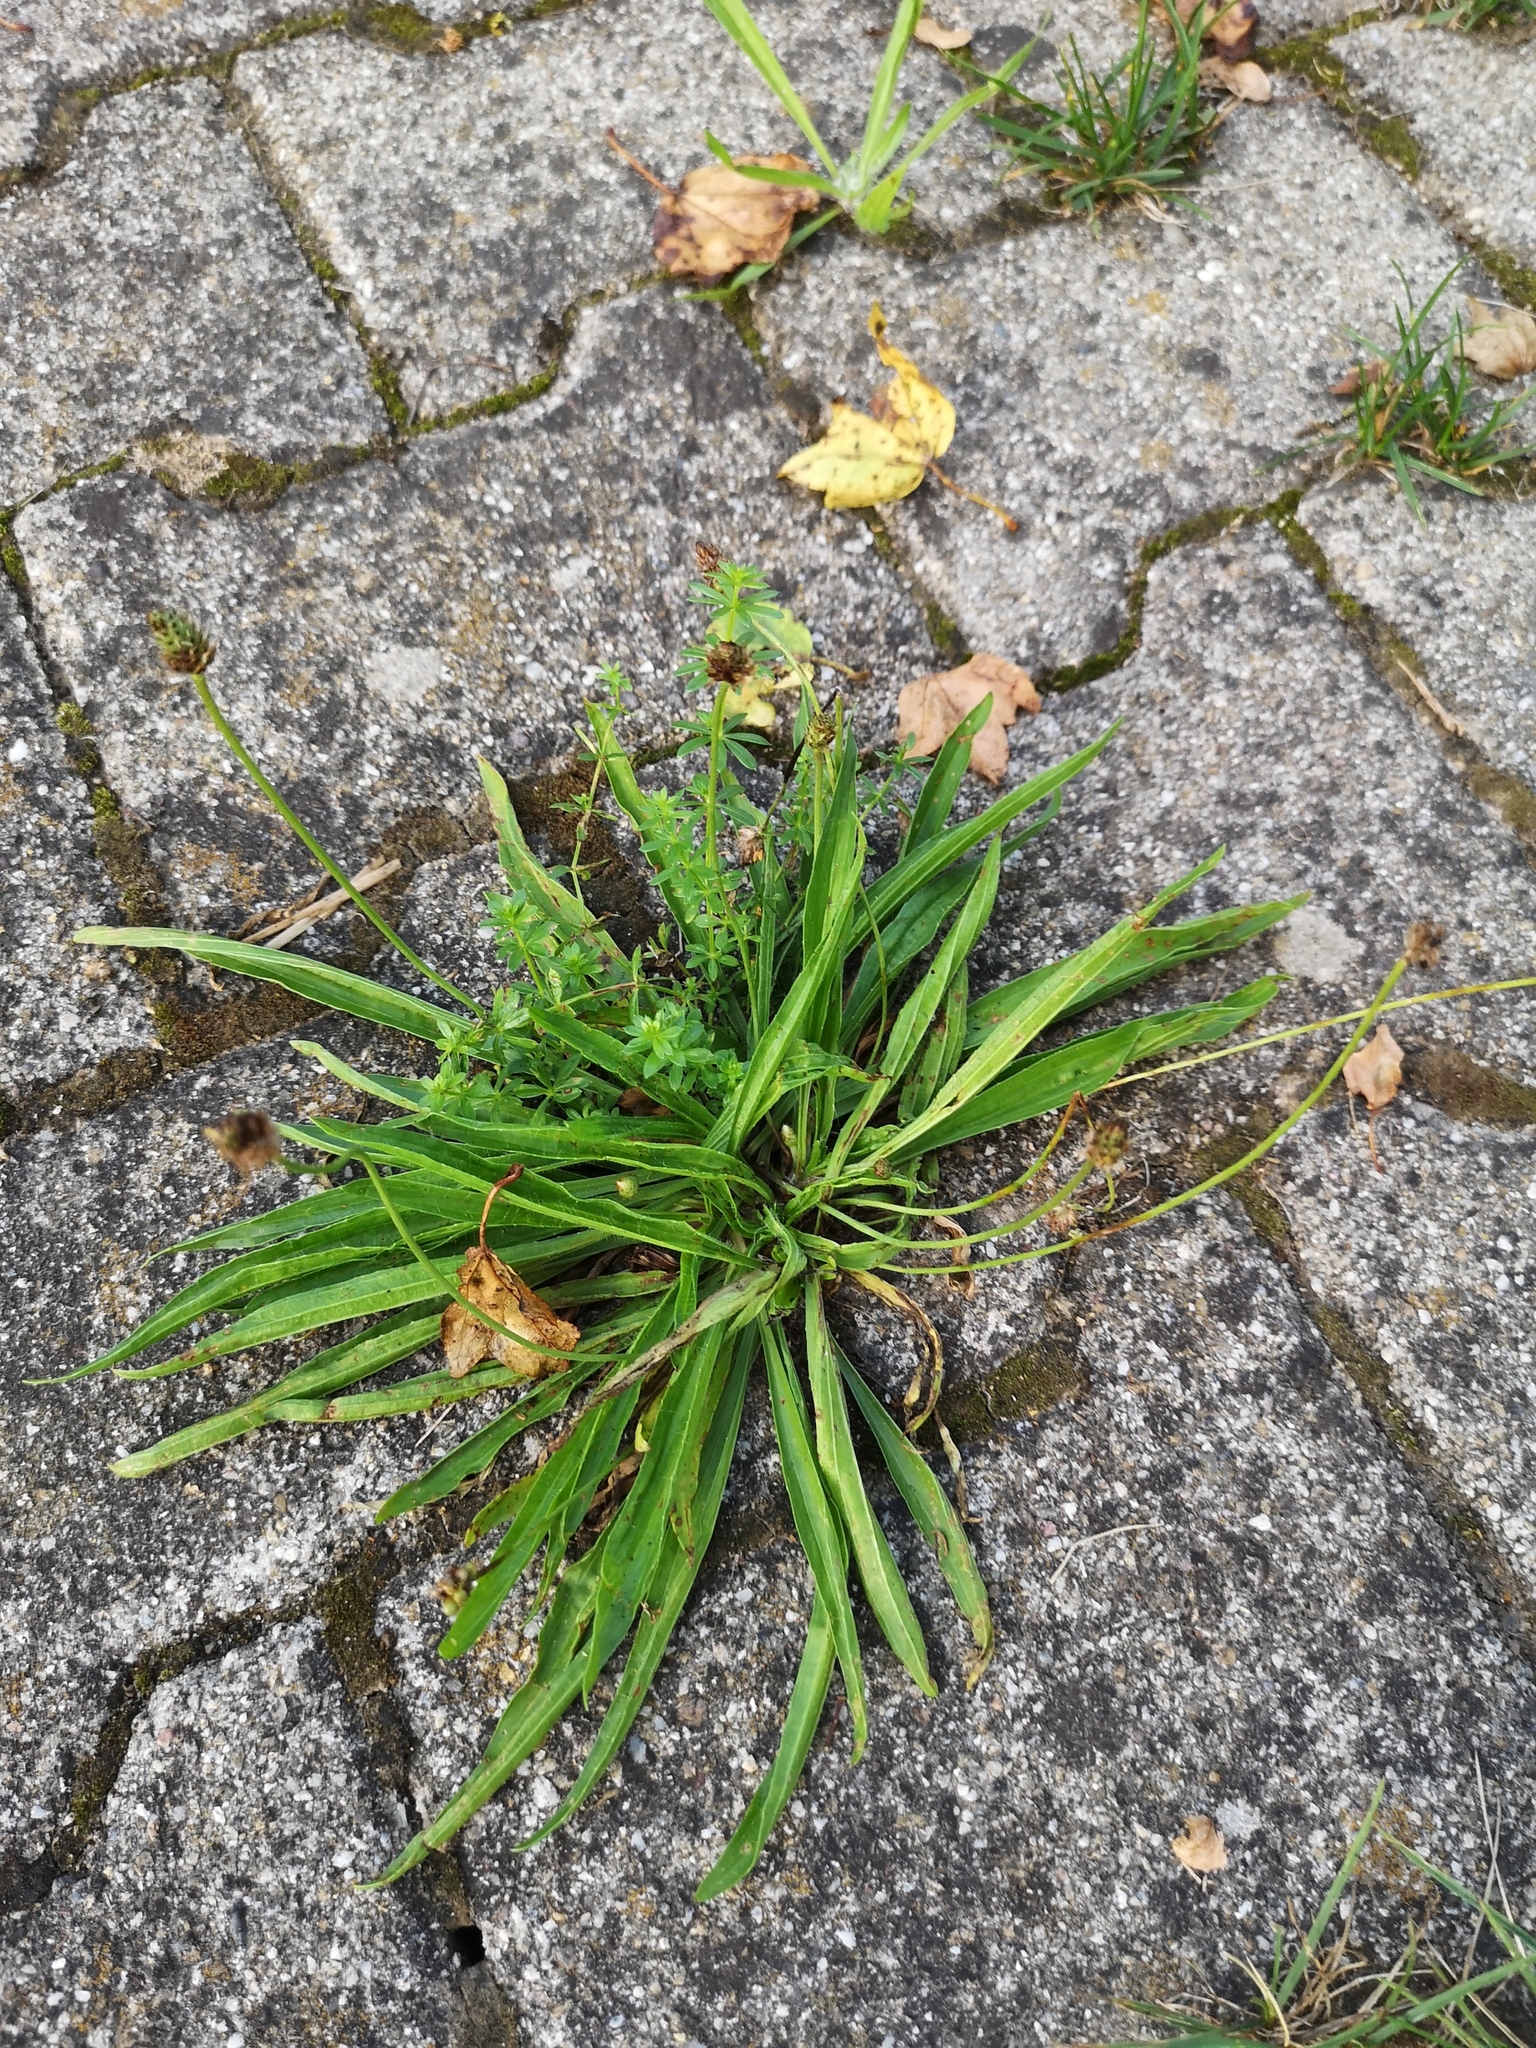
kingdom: Plantae
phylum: Tracheophyta
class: Magnoliopsida
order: Lamiales
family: Plantaginaceae
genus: Plantago
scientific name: Plantago lanceolata
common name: Ribwort plantain
